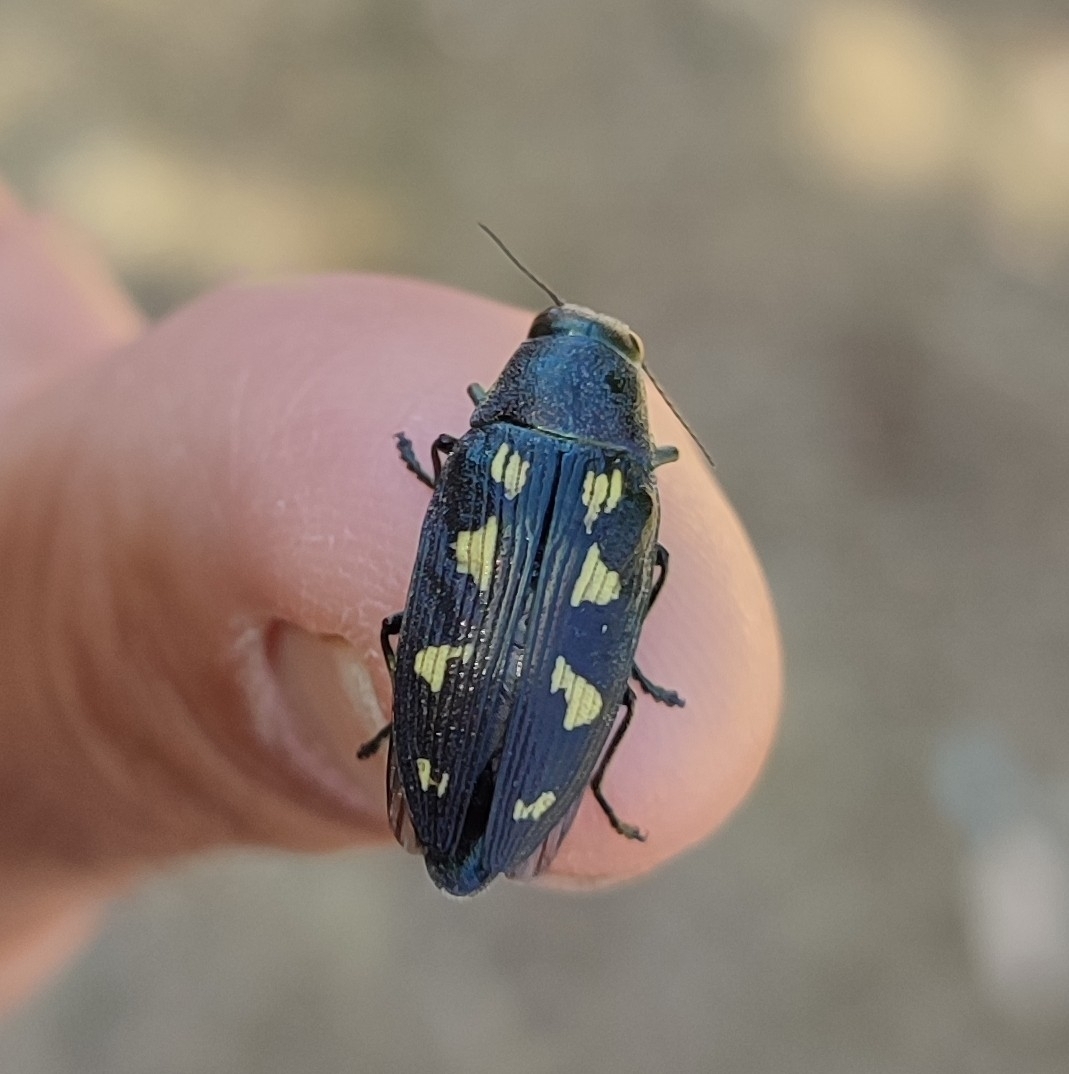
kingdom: Animalia
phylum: Arthropoda
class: Insecta
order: Coleoptera
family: Buprestidae
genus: Buprestis
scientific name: Buprestis novemmaculata
